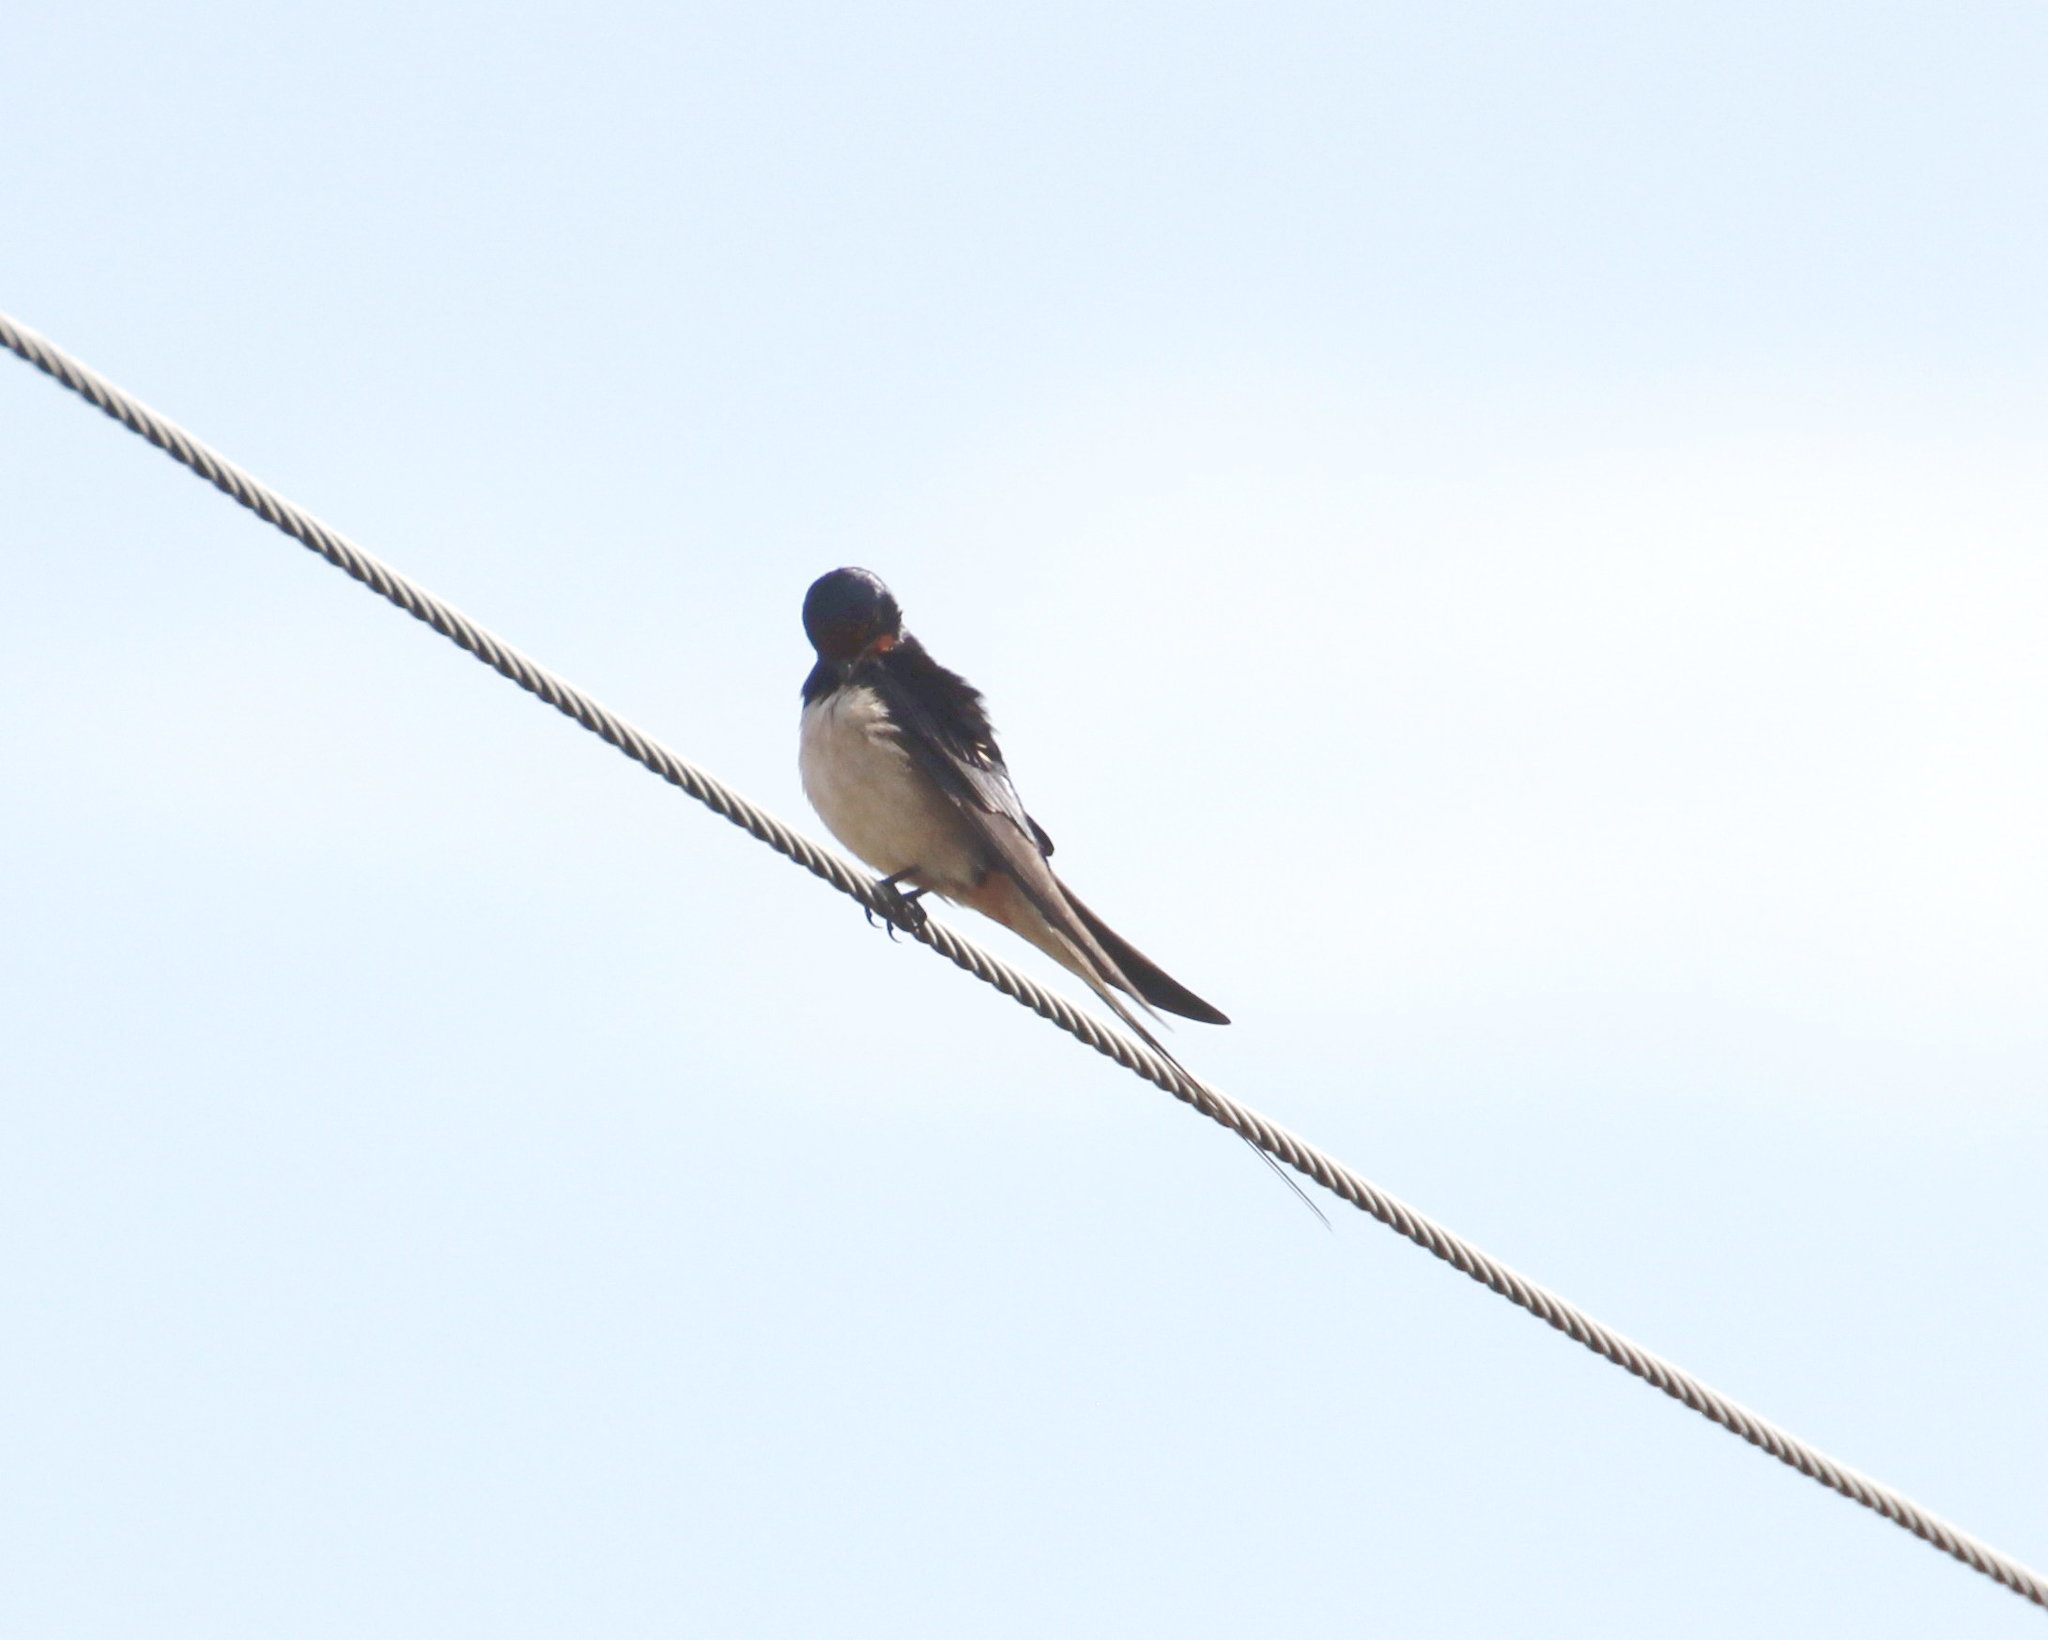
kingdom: Animalia
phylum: Chordata
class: Aves
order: Passeriformes
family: Hirundinidae
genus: Hirundo
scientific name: Hirundo rustica
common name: Barn swallow
